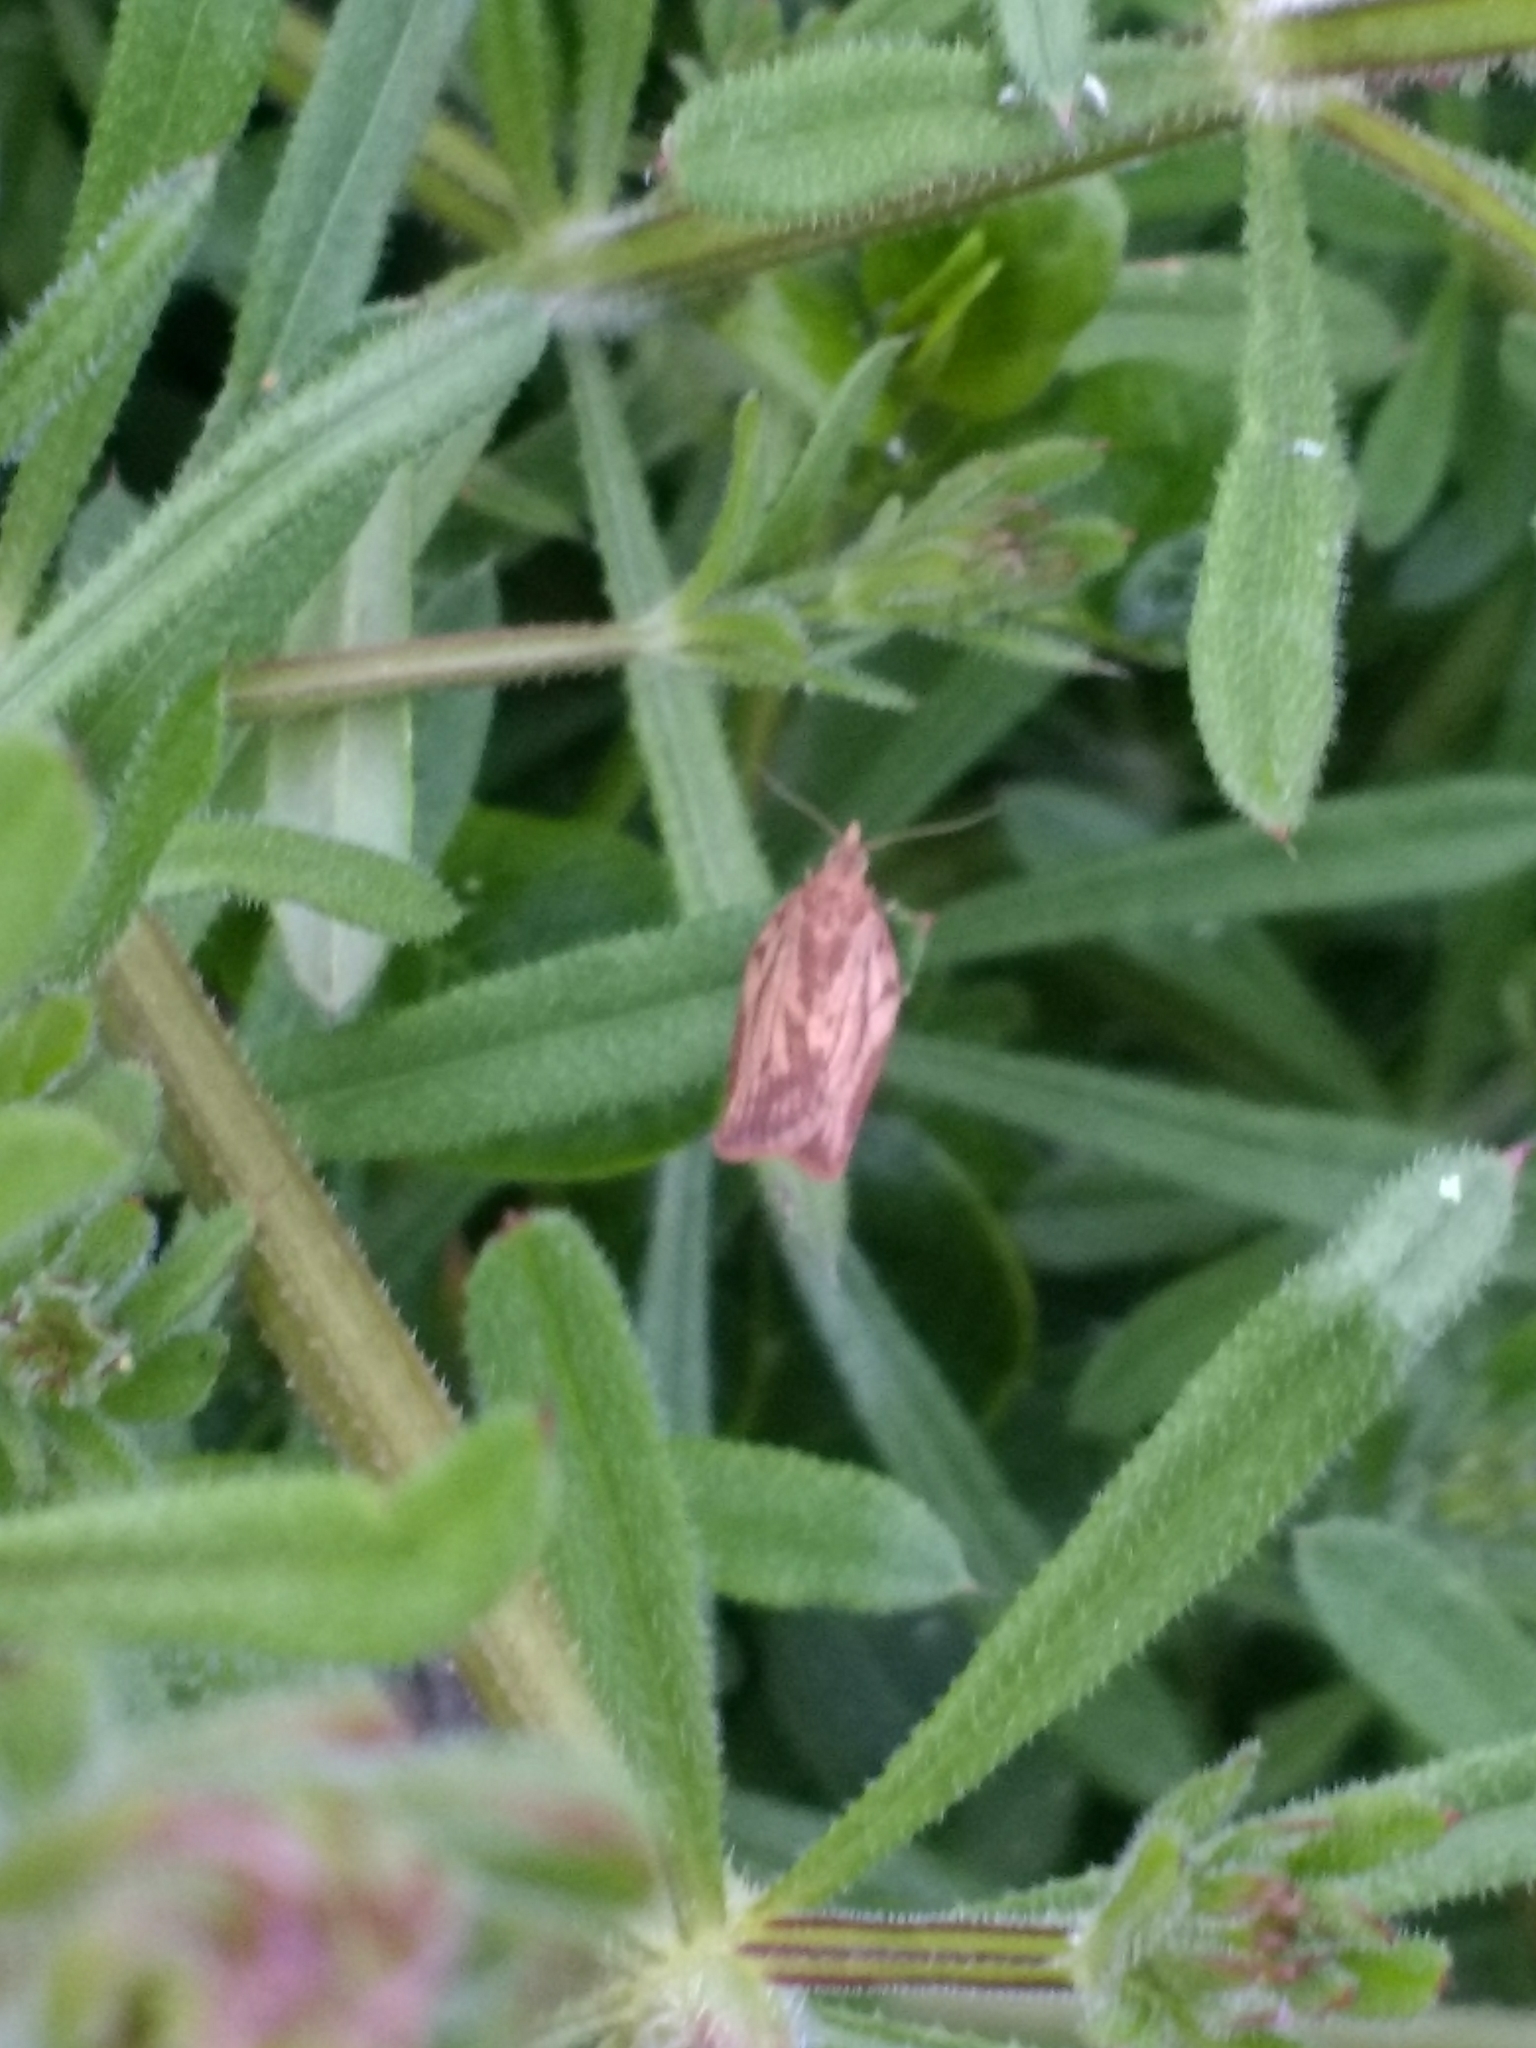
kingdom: Animalia
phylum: Arthropoda
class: Insecta
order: Lepidoptera
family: Tortricidae
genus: Epiphyas
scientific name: Epiphyas postvittana
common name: Light brown apple moth
